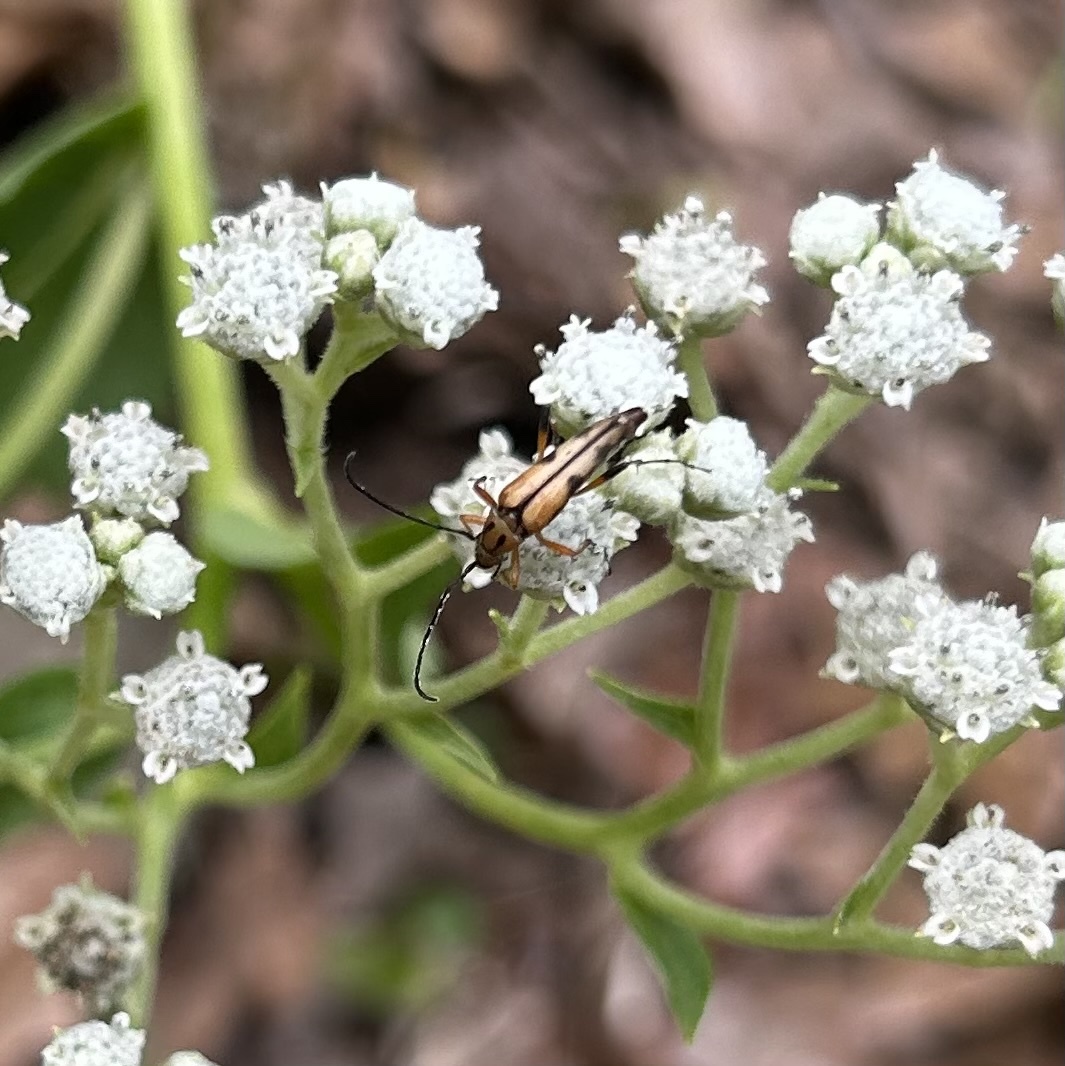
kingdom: Animalia
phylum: Arthropoda
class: Insecta
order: Coleoptera
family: Cerambycidae
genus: Strangalia
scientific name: Strangalia famelica
